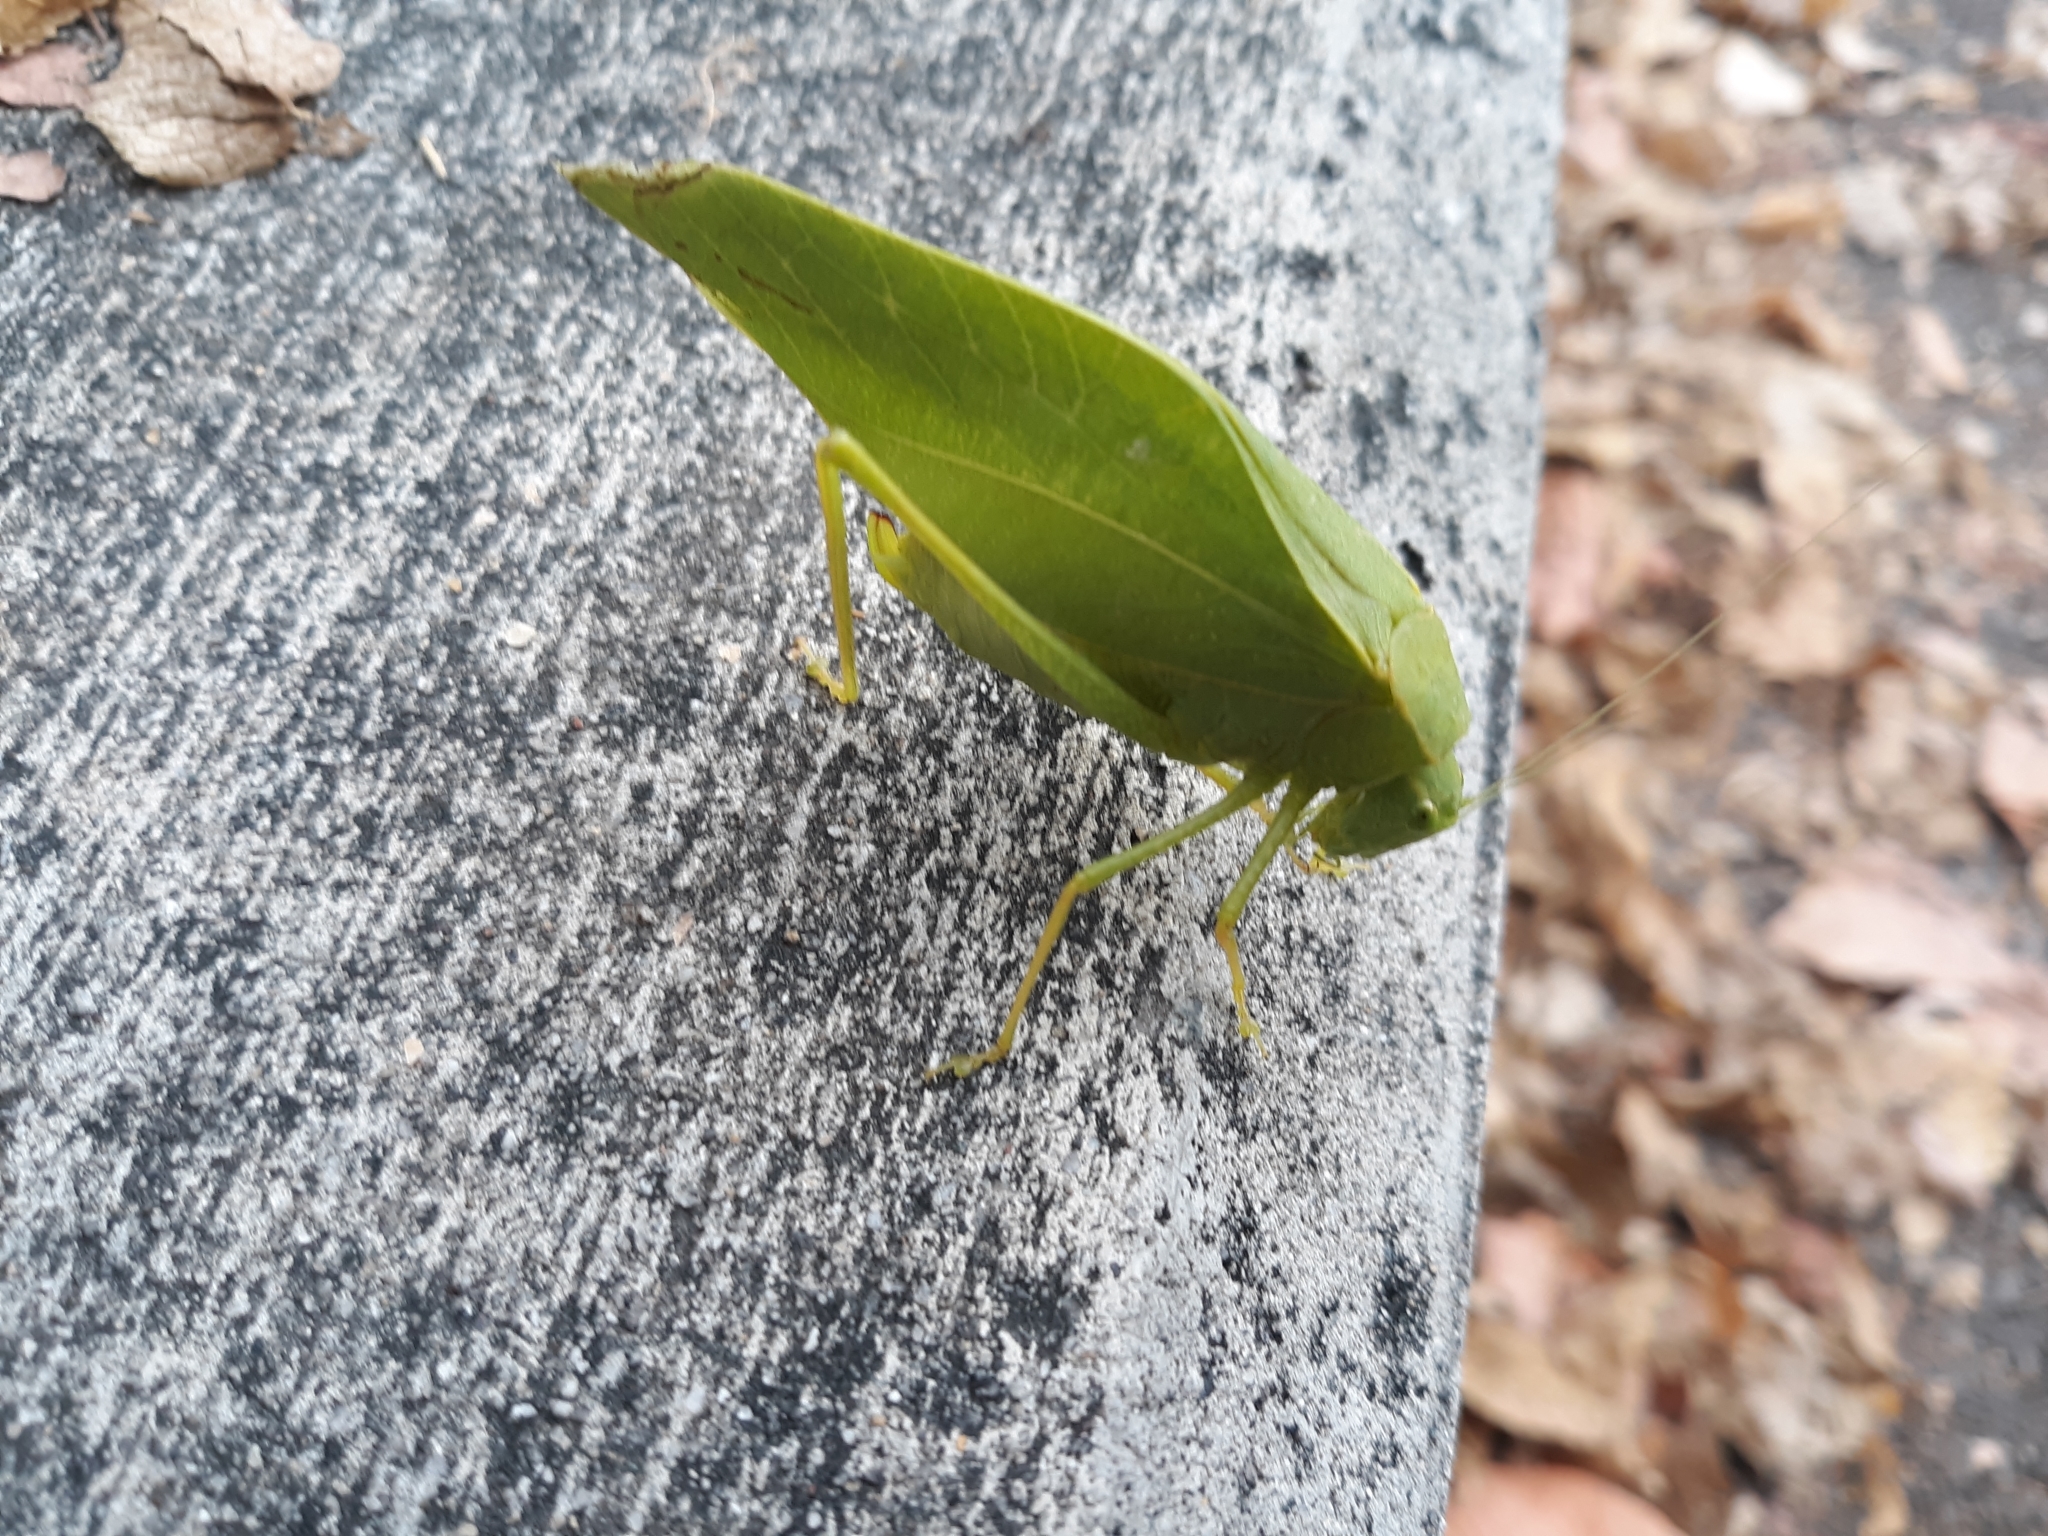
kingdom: Animalia
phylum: Arthropoda
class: Insecta
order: Orthoptera
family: Tettigoniidae
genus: Microcentrum
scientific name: Microcentrum rhombifolium
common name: Broad-winged katydid
